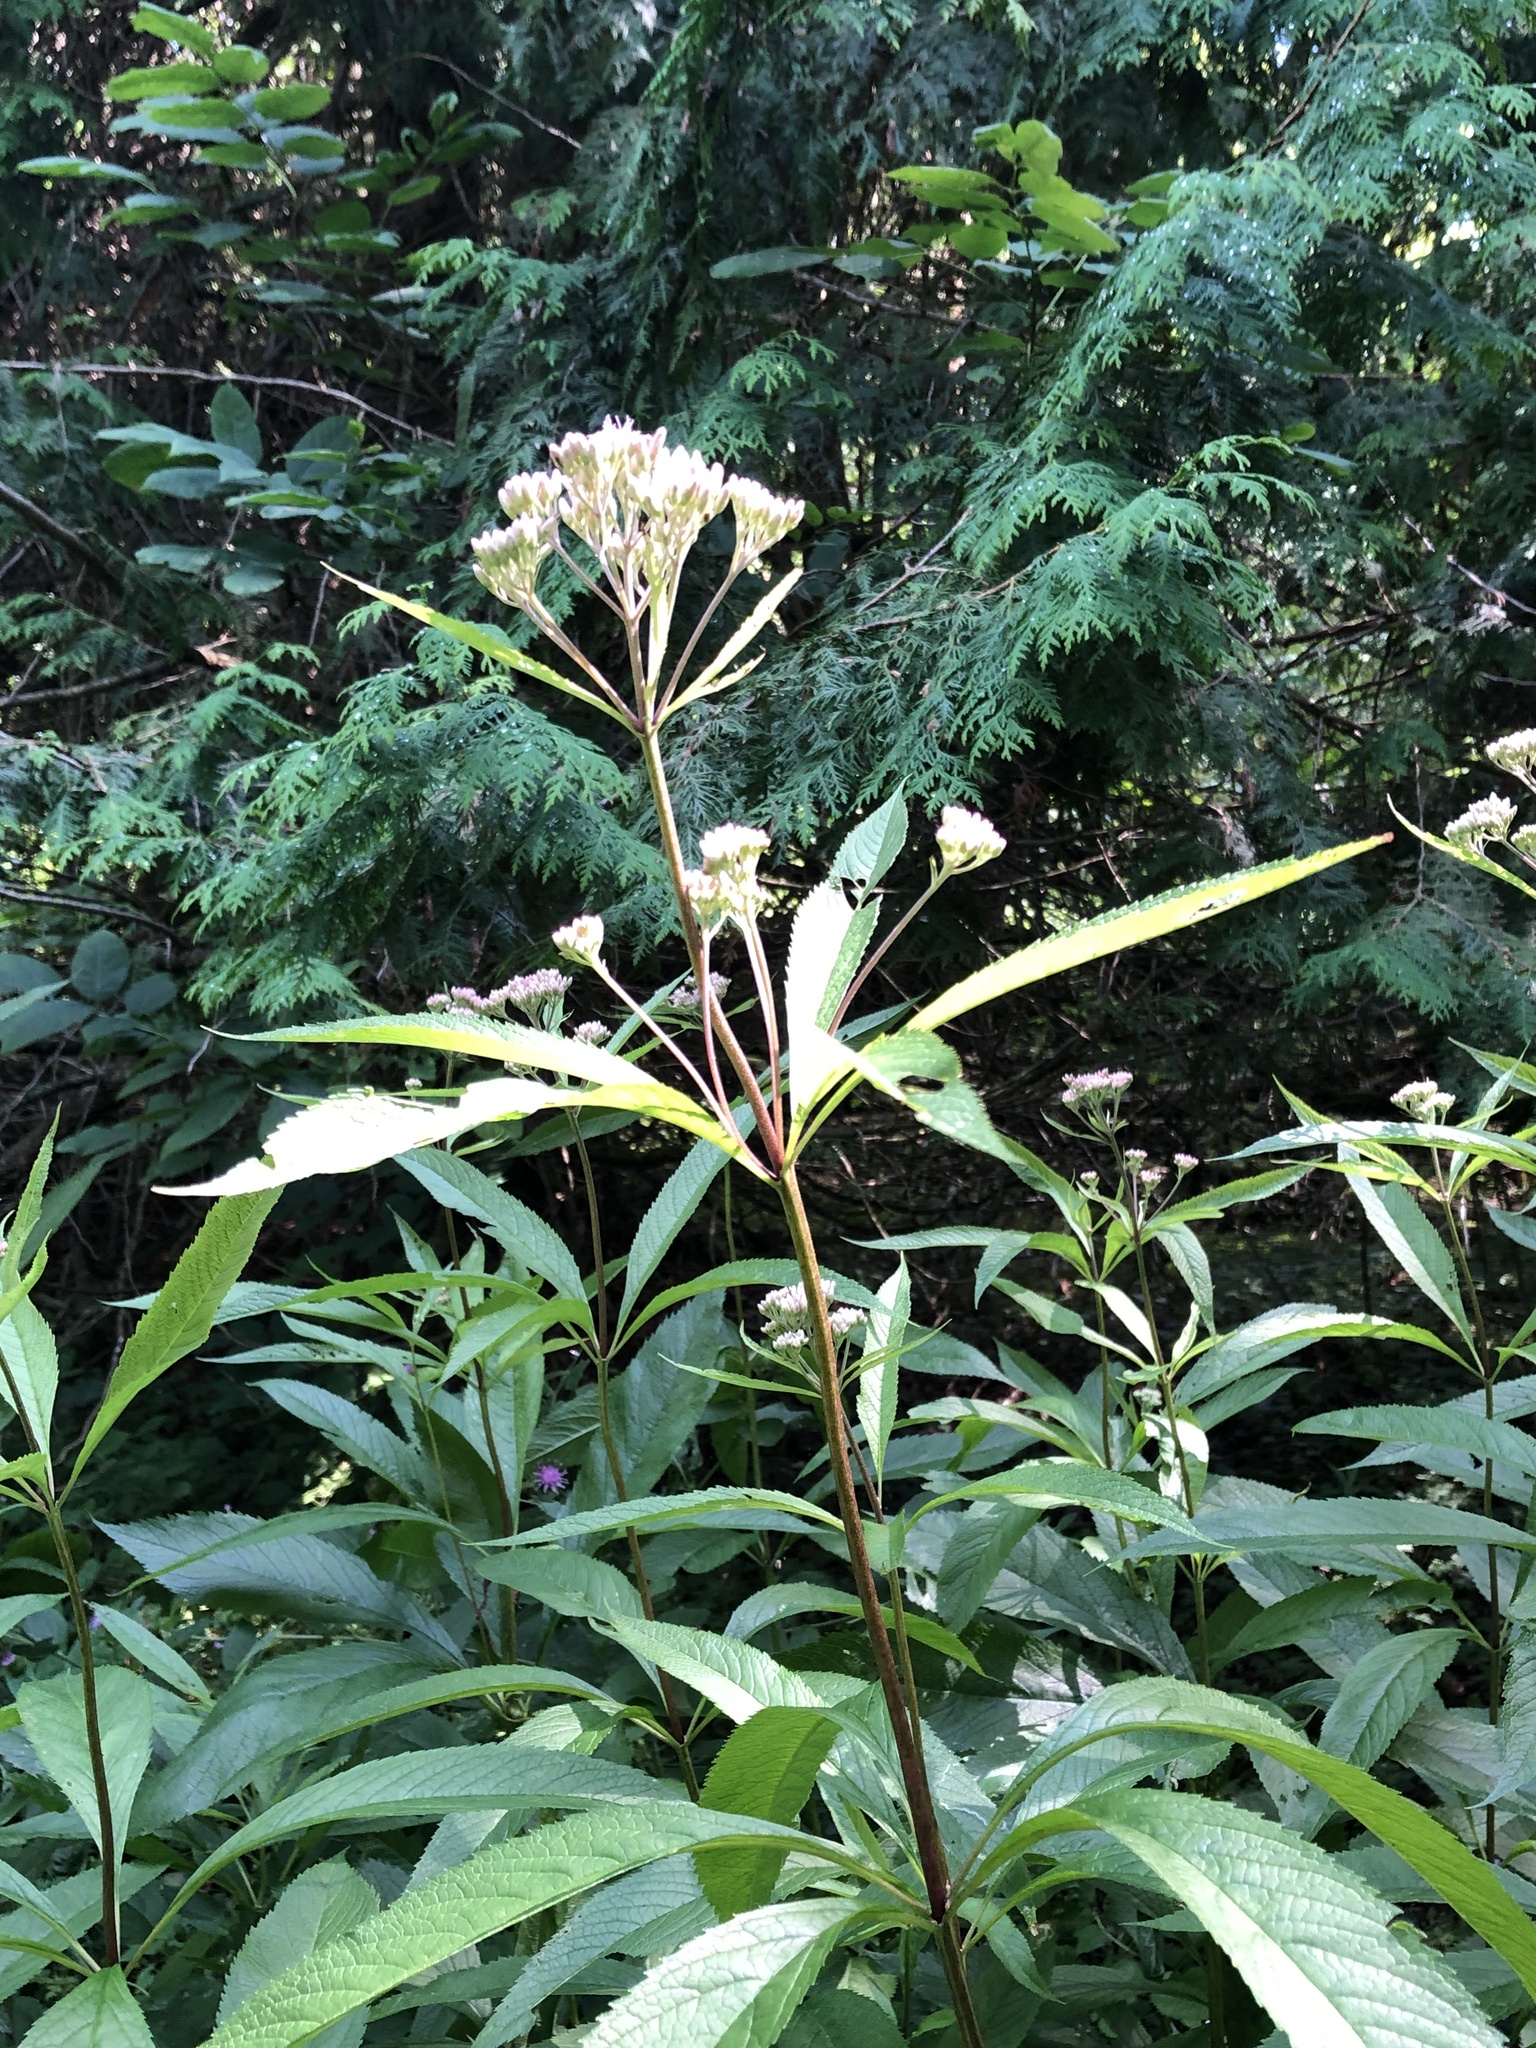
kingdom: Plantae
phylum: Tracheophyta
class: Magnoliopsida
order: Asterales
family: Asteraceae
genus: Eutrochium
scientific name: Eutrochium maculatum
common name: Spotted joe pye weed
